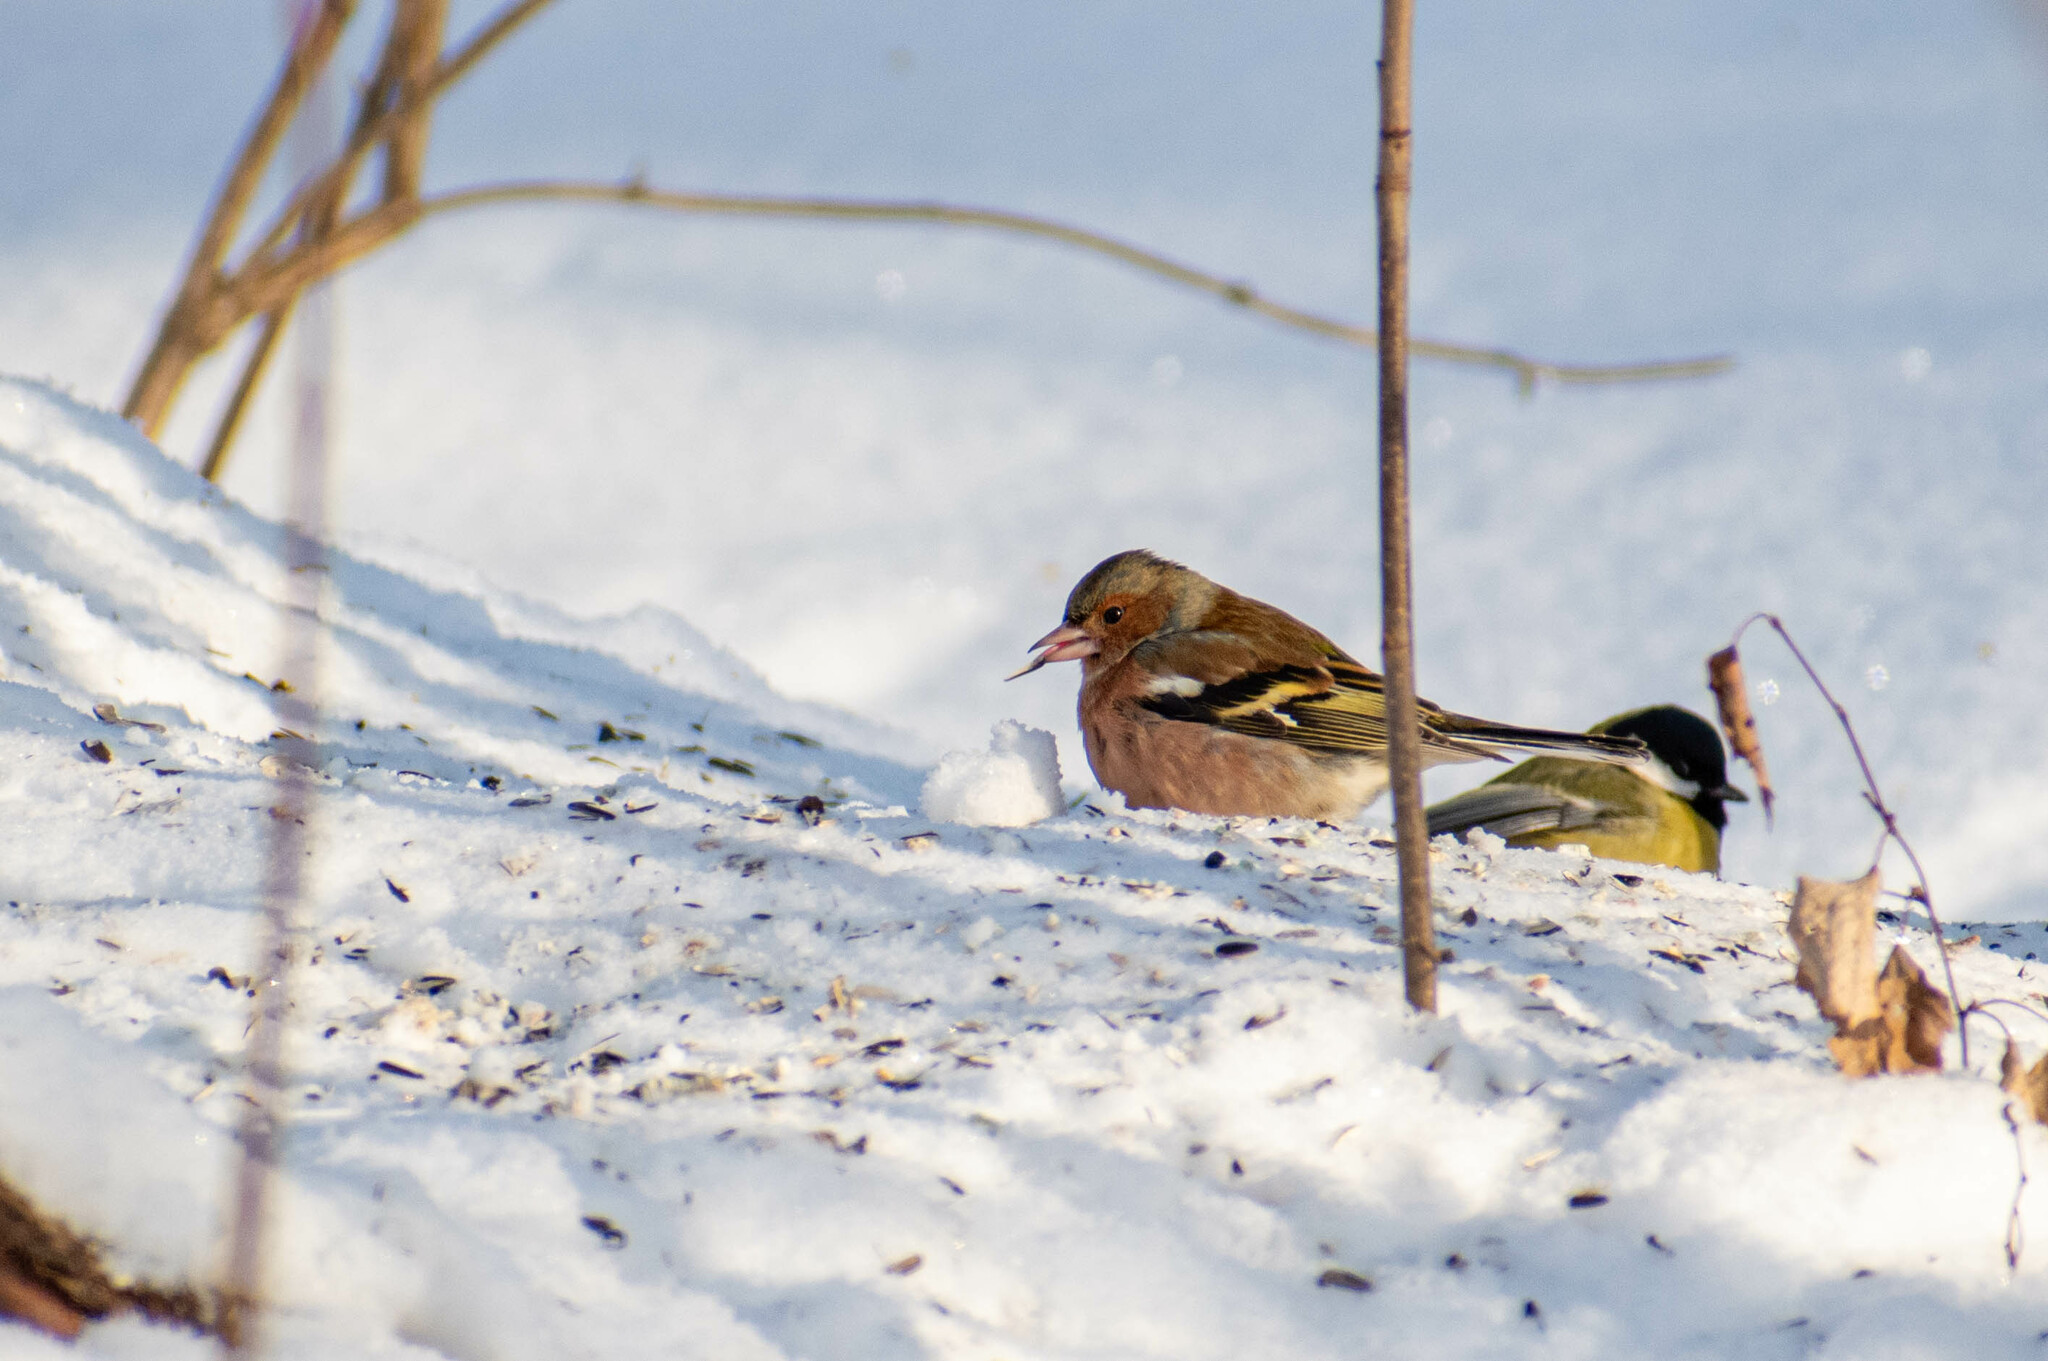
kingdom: Animalia
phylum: Chordata
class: Aves
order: Passeriformes
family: Fringillidae
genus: Fringilla
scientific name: Fringilla coelebs
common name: Common chaffinch
